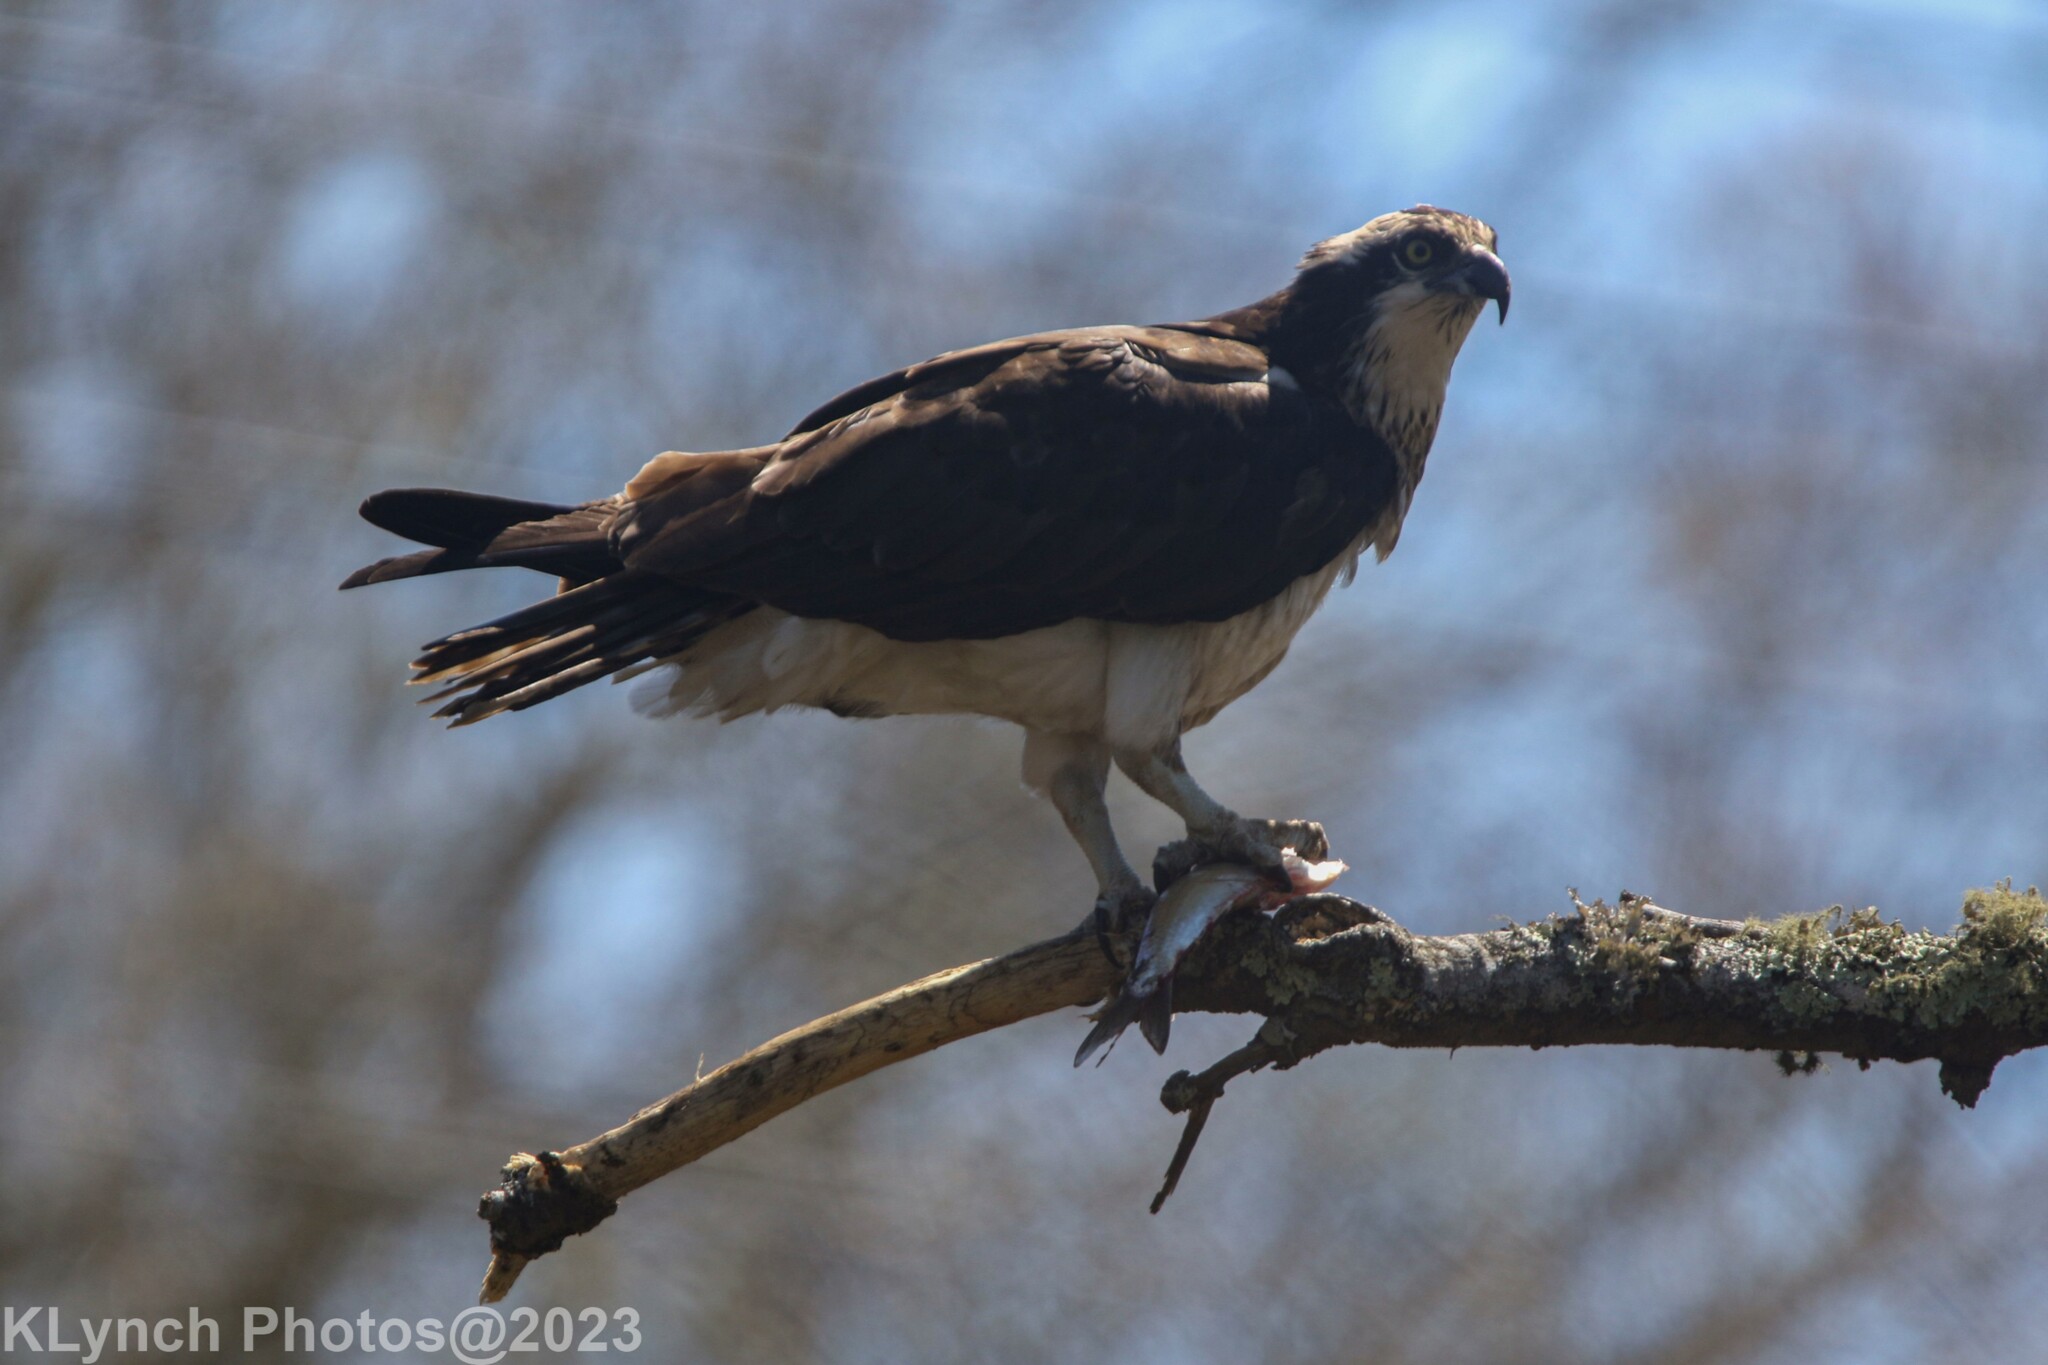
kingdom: Animalia
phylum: Chordata
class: Aves
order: Accipitriformes
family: Pandionidae
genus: Pandion
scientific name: Pandion haliaetus
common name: Osprey
